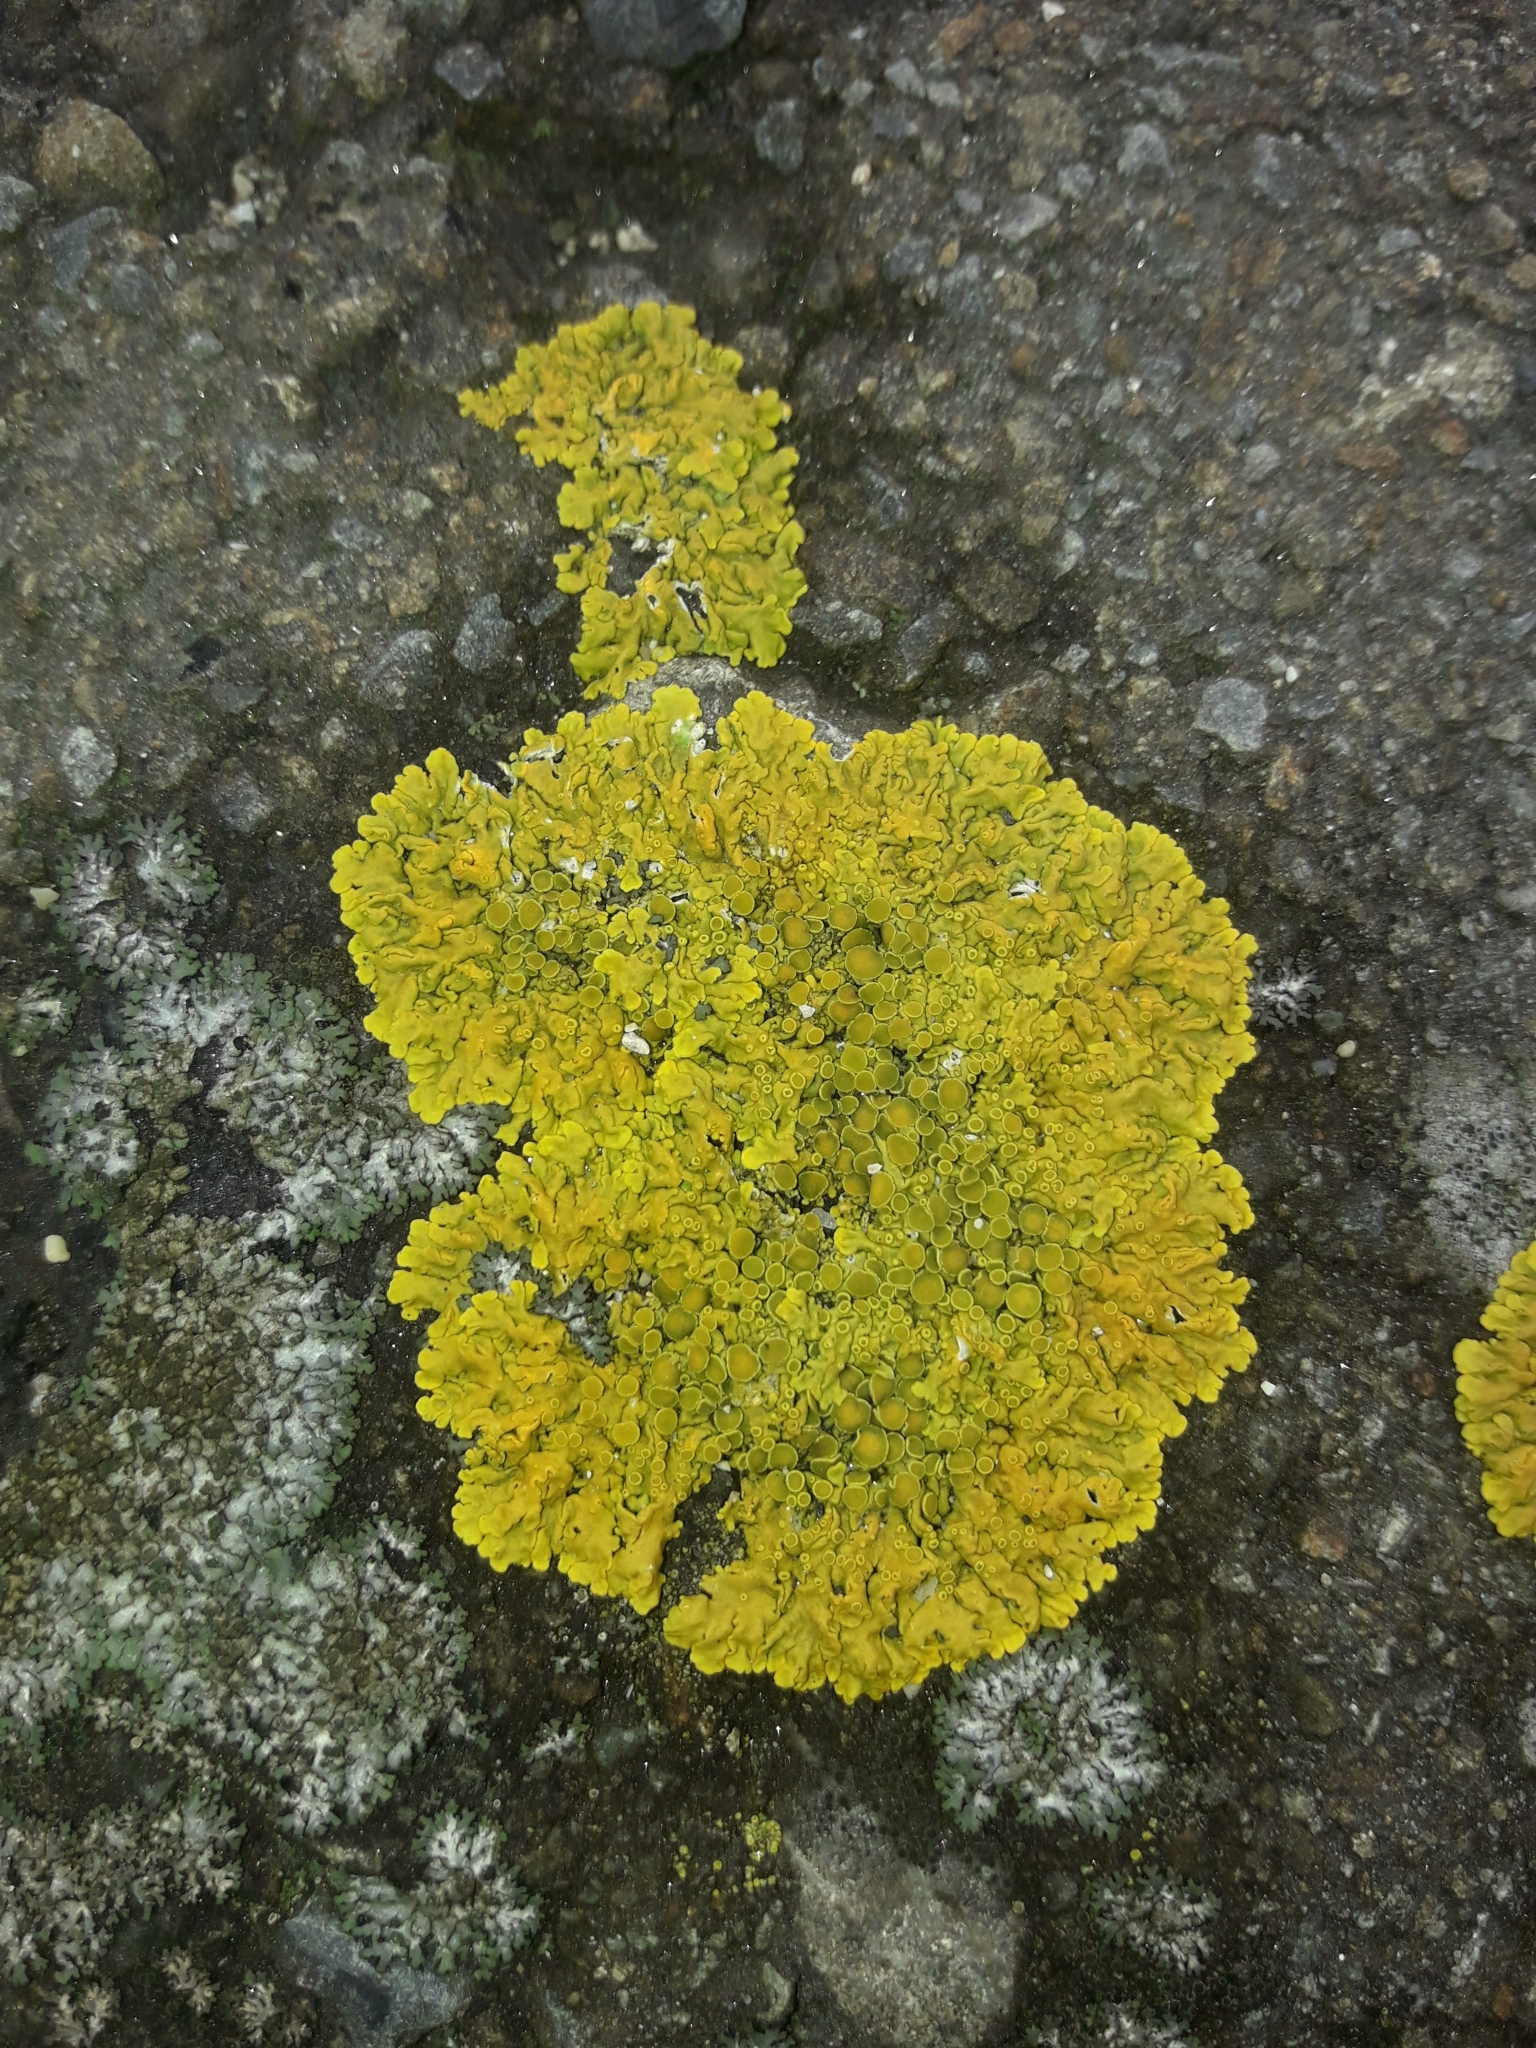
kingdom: Fungi
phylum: Ascomycota
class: Lecanoromycetes
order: Teloschistales
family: Teloschistaceae
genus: Xanthoria
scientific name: Xanthoria parietina
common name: Common orange lichen
